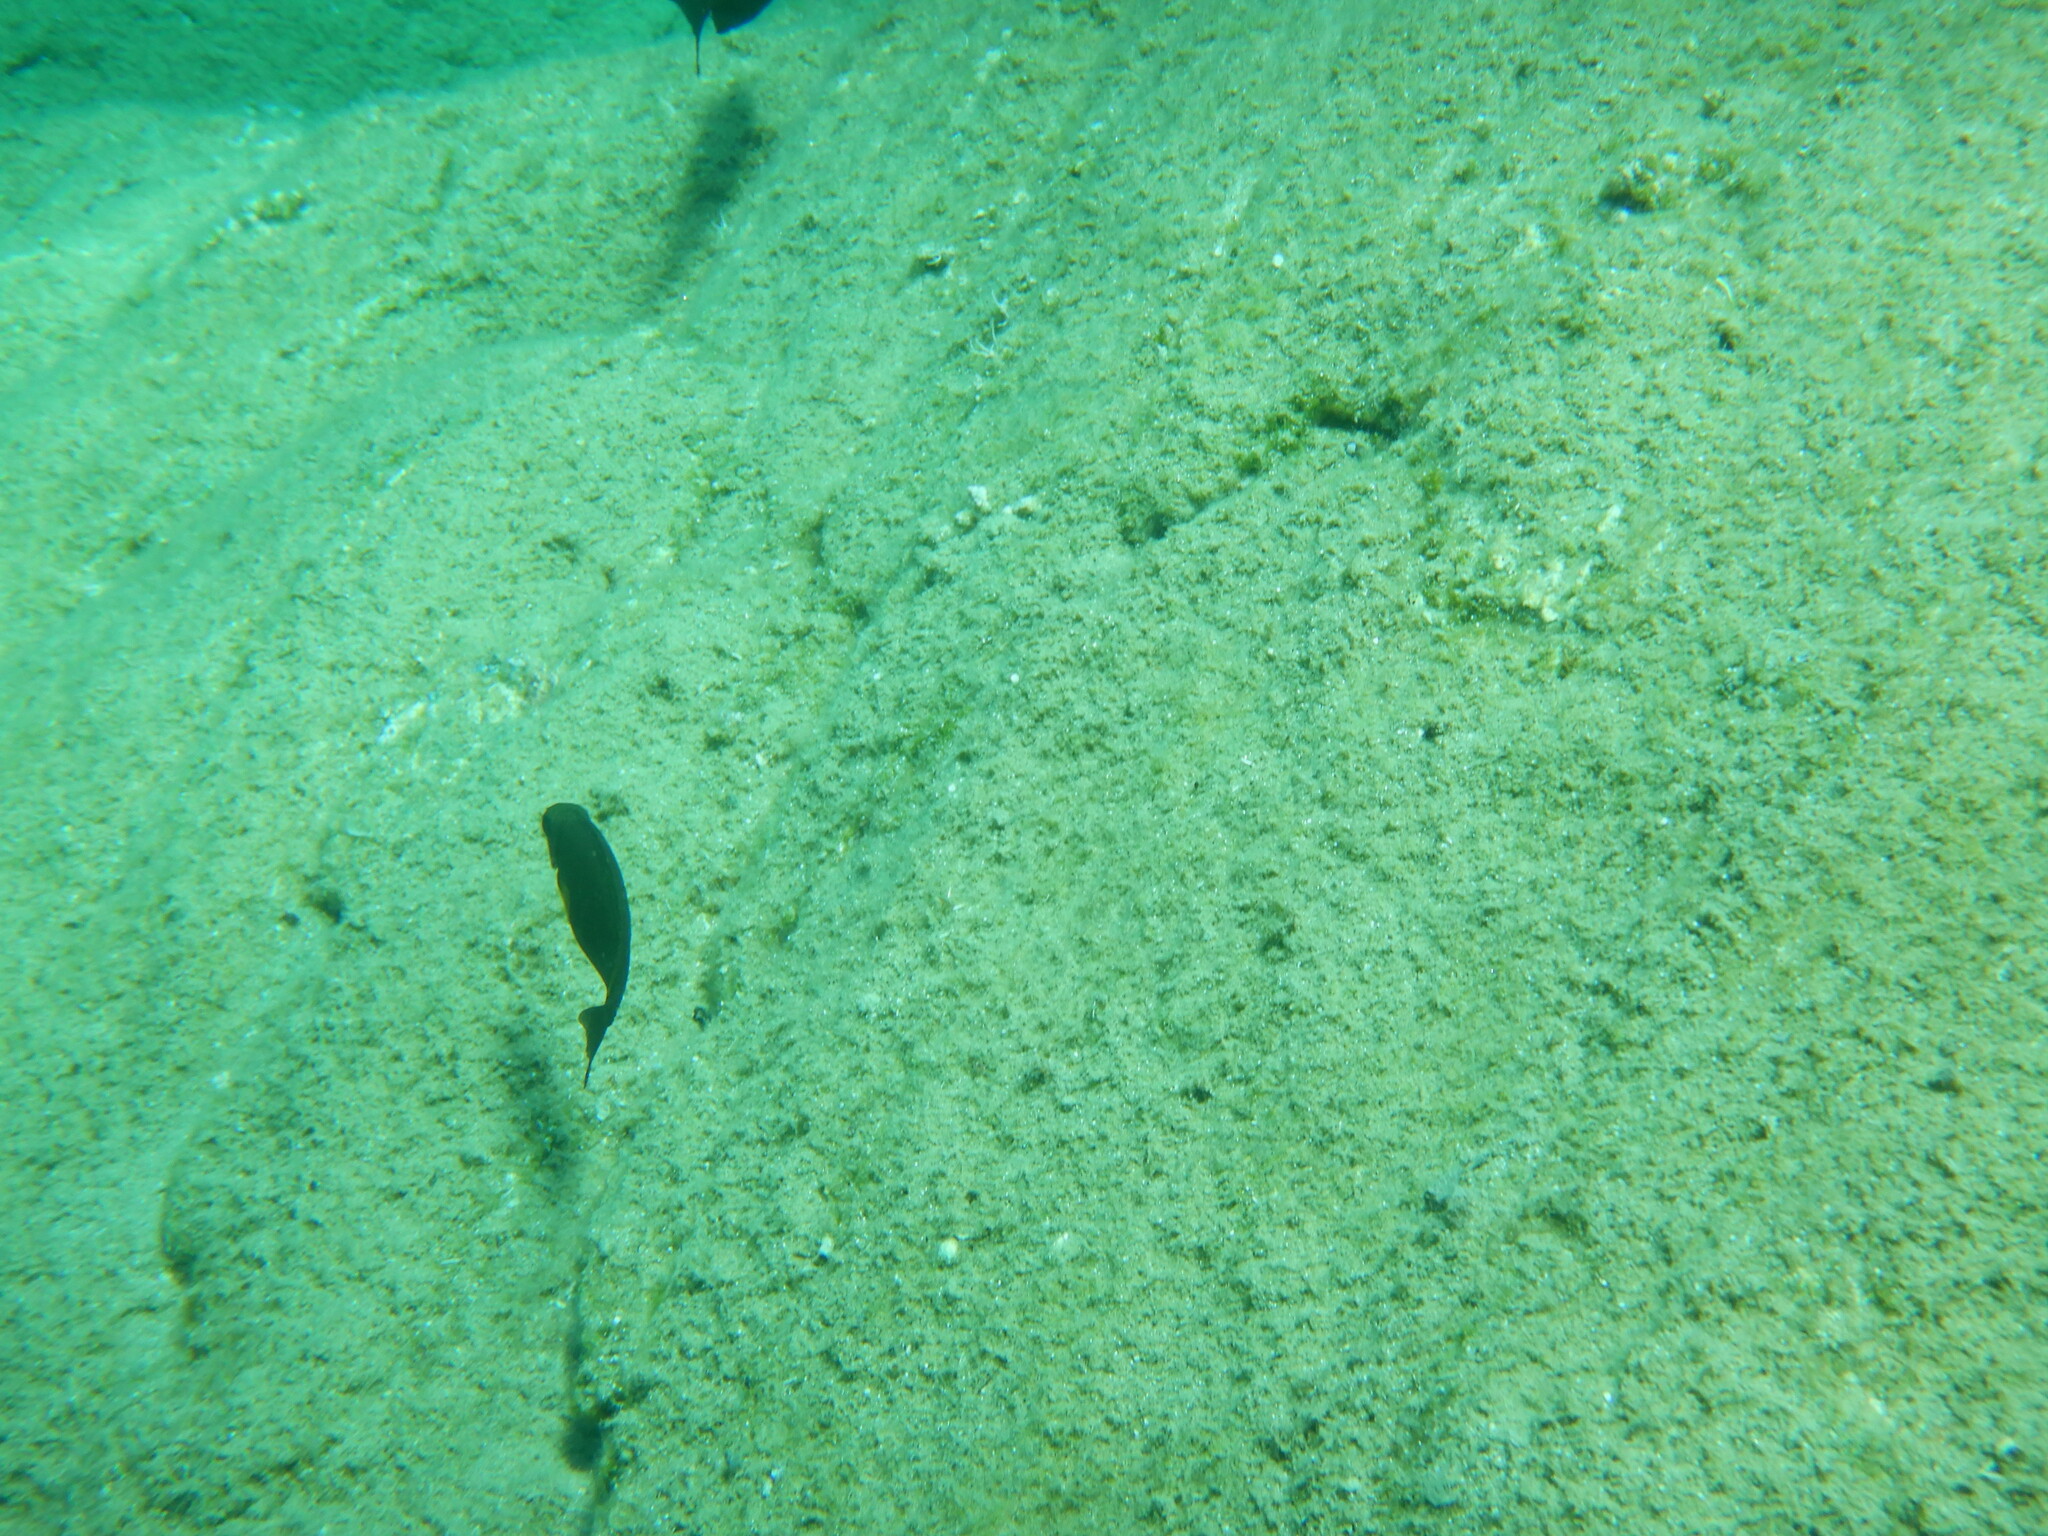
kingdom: Animalia
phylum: Chordata
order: Perciformes
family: Siganidae
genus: Siganus
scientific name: Siganus
